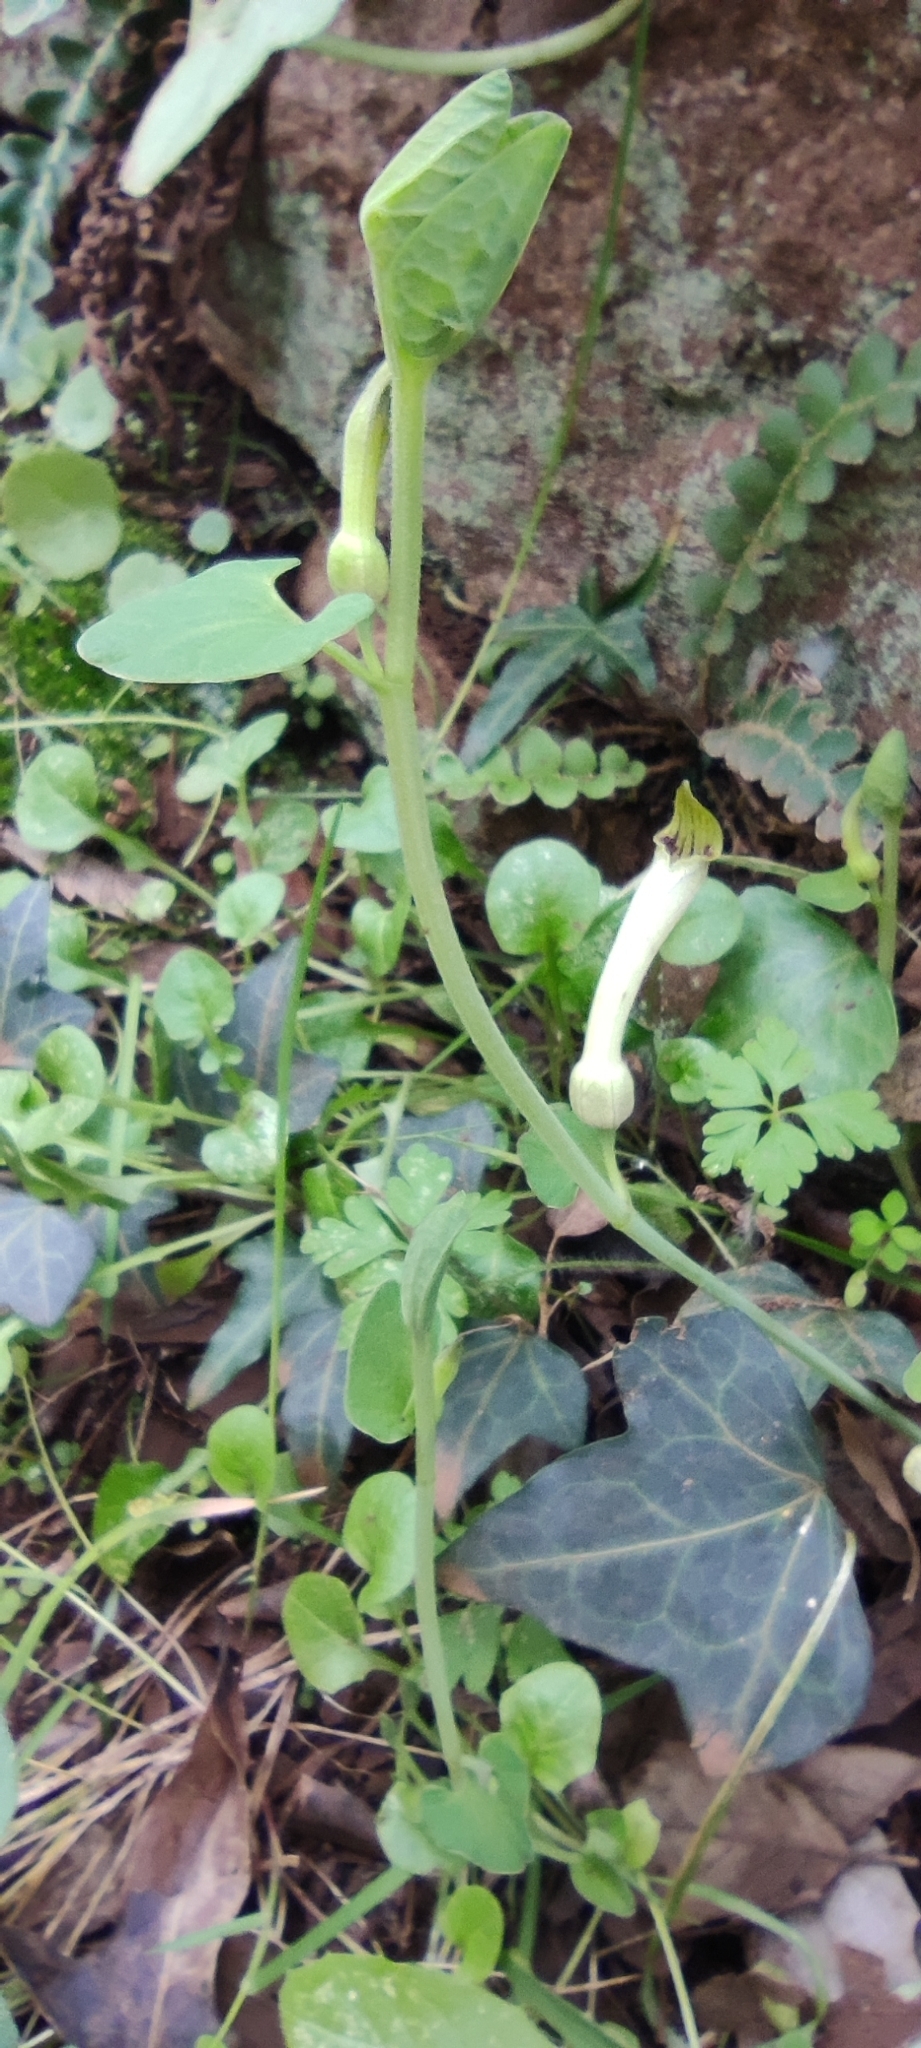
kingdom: Plantae
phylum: Tracheophyta
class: Magnoliopsida
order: Piperales
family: Aristolochiaceae
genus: Aristolochia
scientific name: Aristolochia paucinervis
